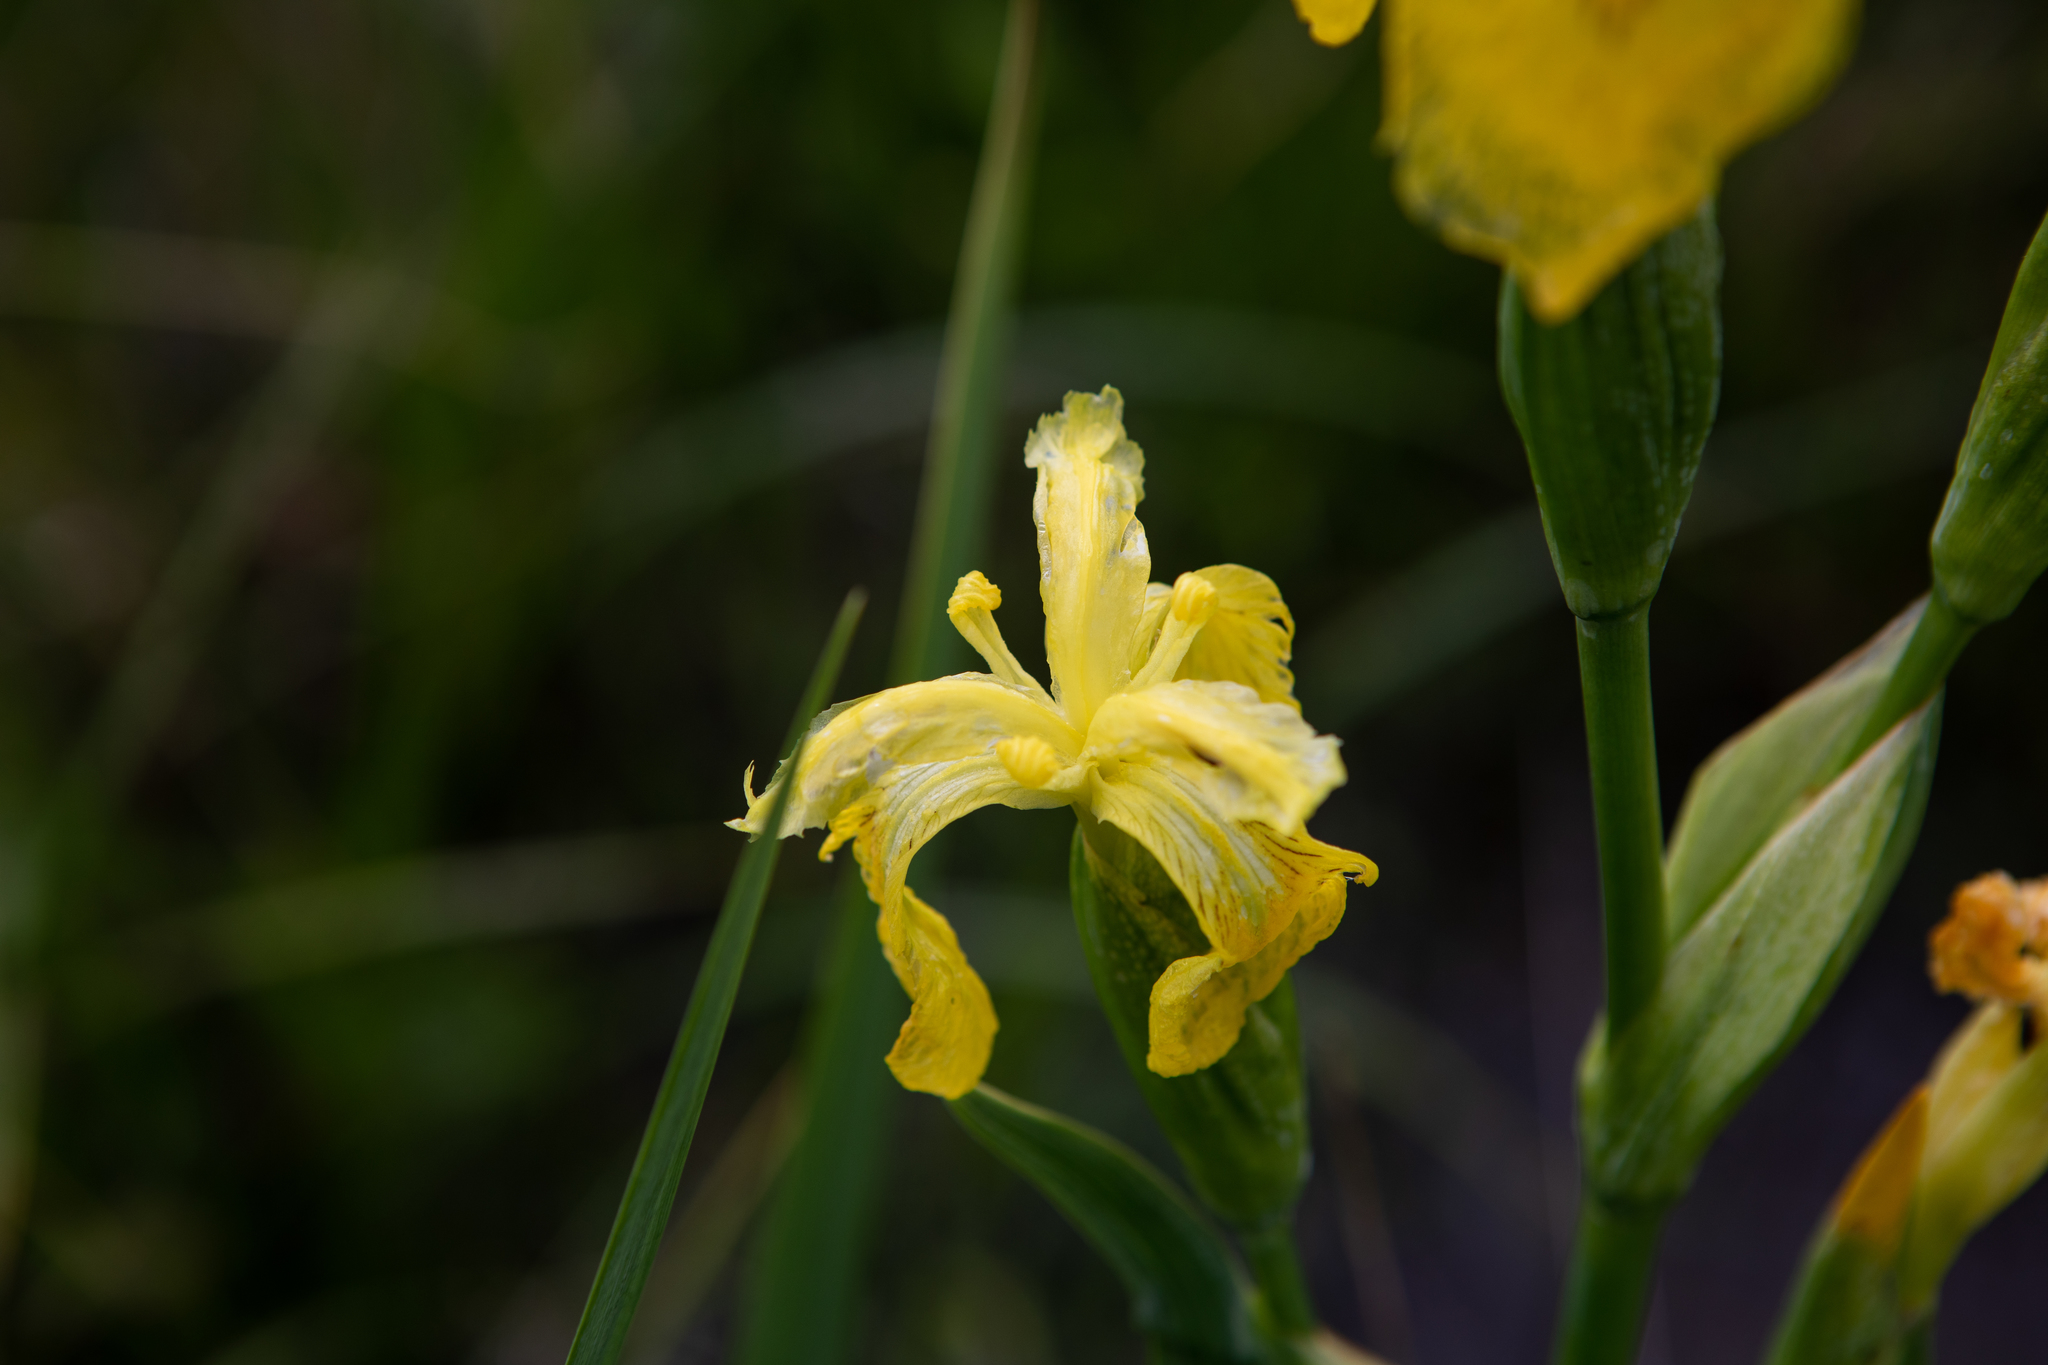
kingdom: Plantae
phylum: Tracheophyta
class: Liliopsida
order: Asparagales
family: Iridaceae
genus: Iris
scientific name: Iris pseudacorus
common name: Yellow flag
